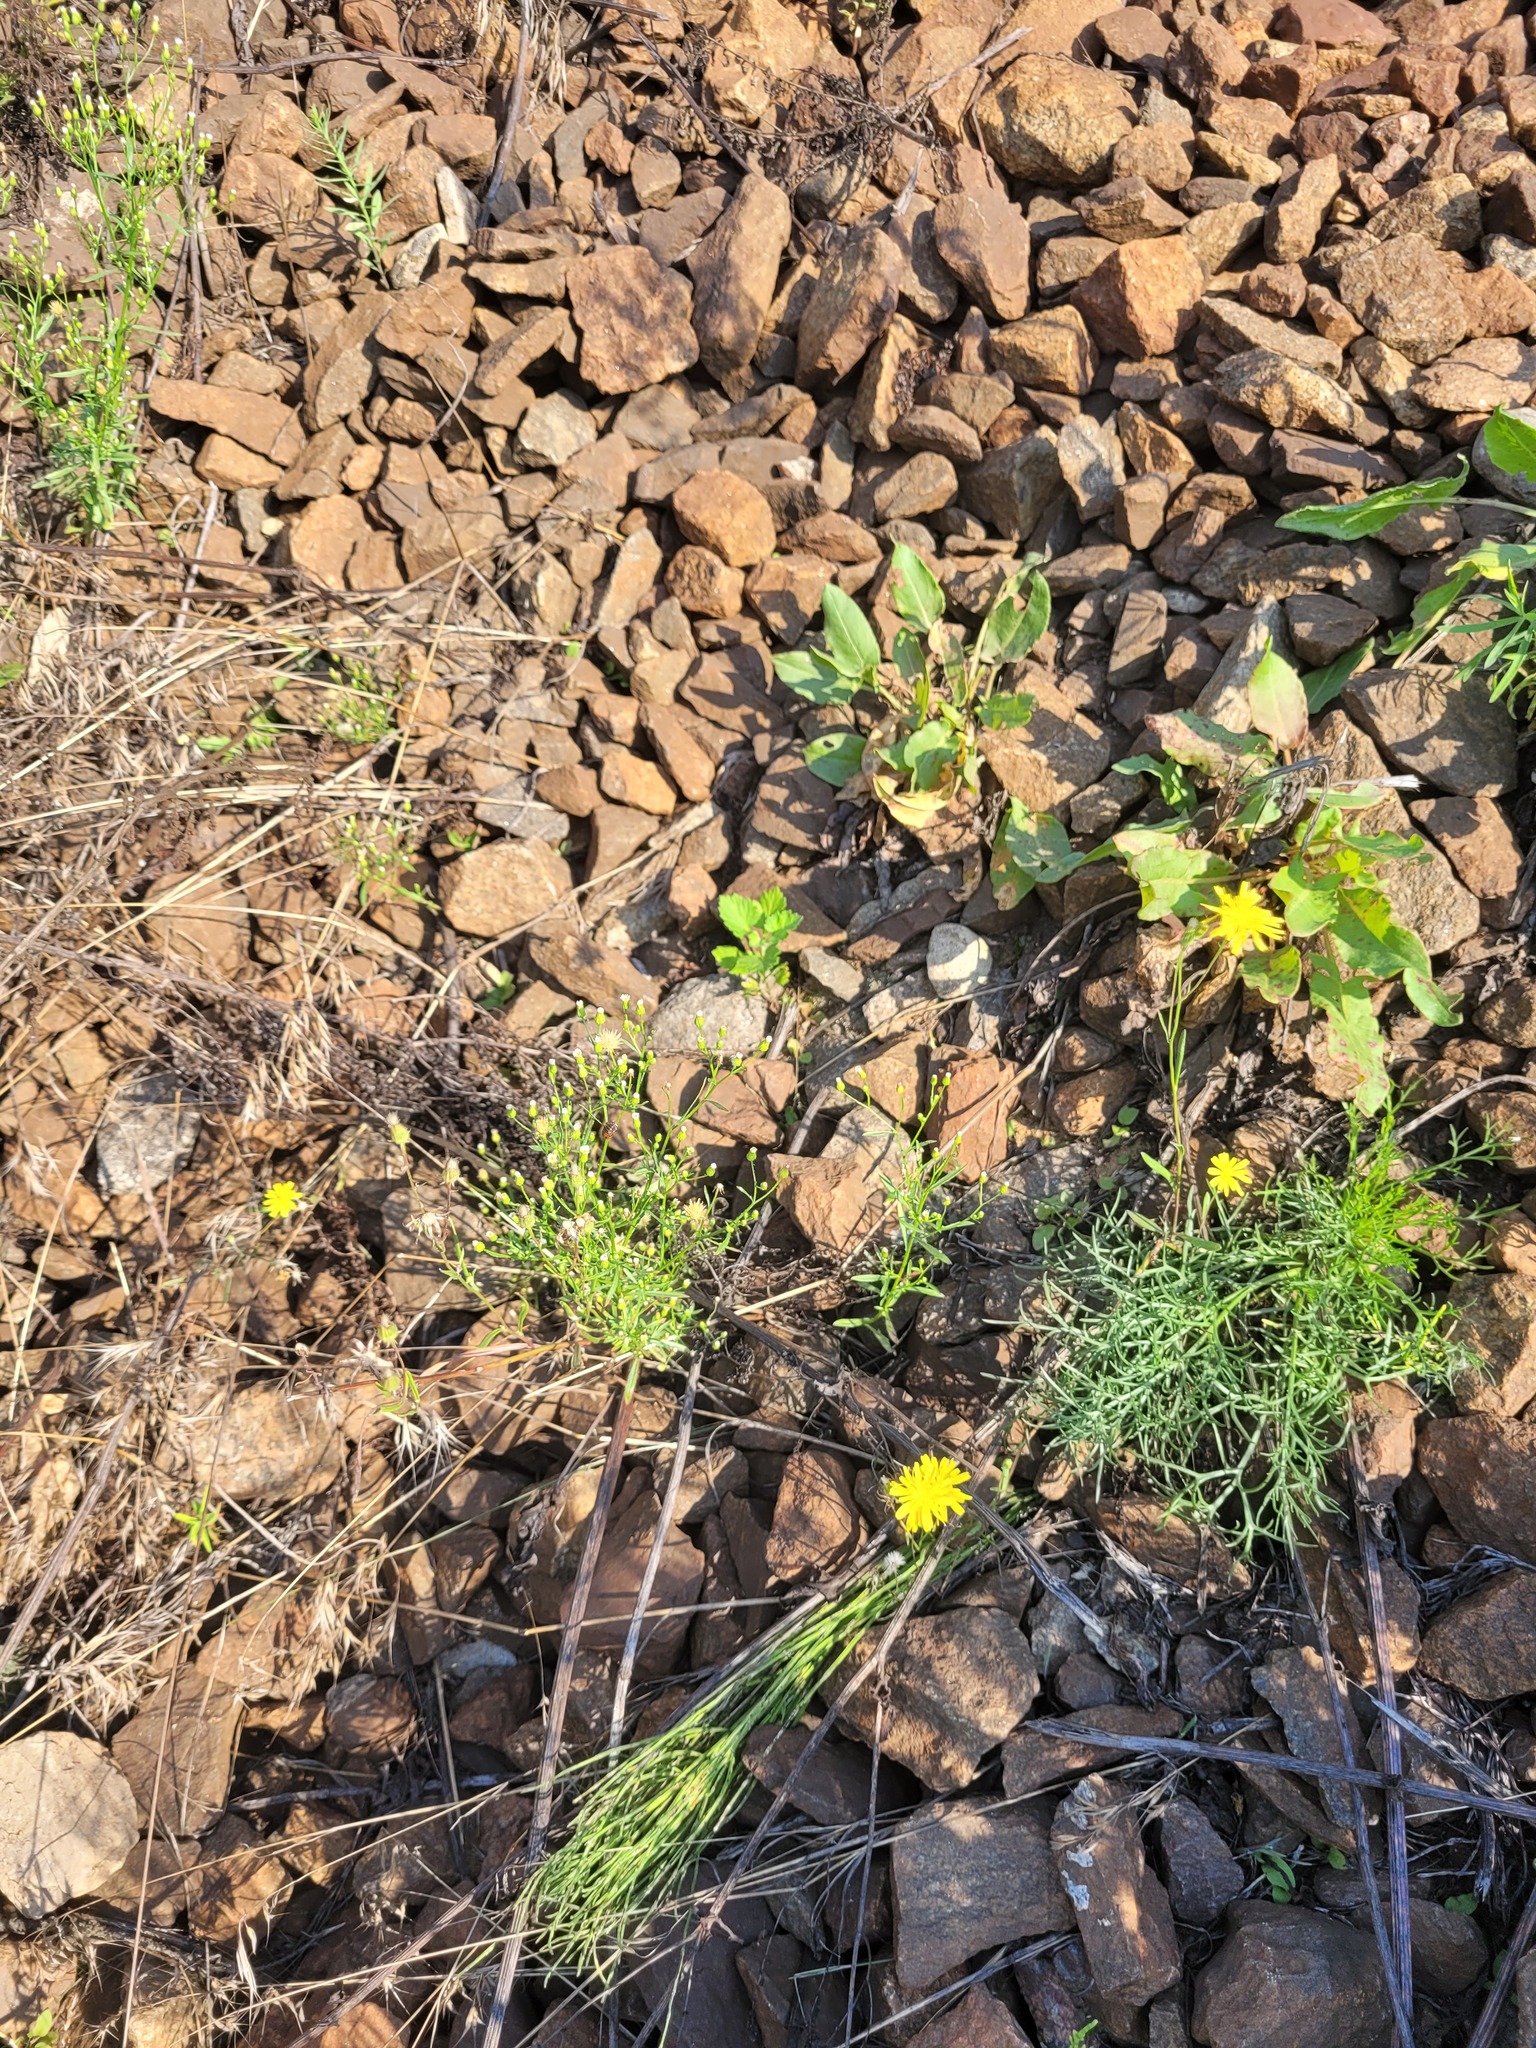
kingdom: Plantae
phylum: Tracheophyta
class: Magnoliopsida
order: Asterales
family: Asteraceae
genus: Erigeron
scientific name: Erigeron canadensis
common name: Canadian fleabane
